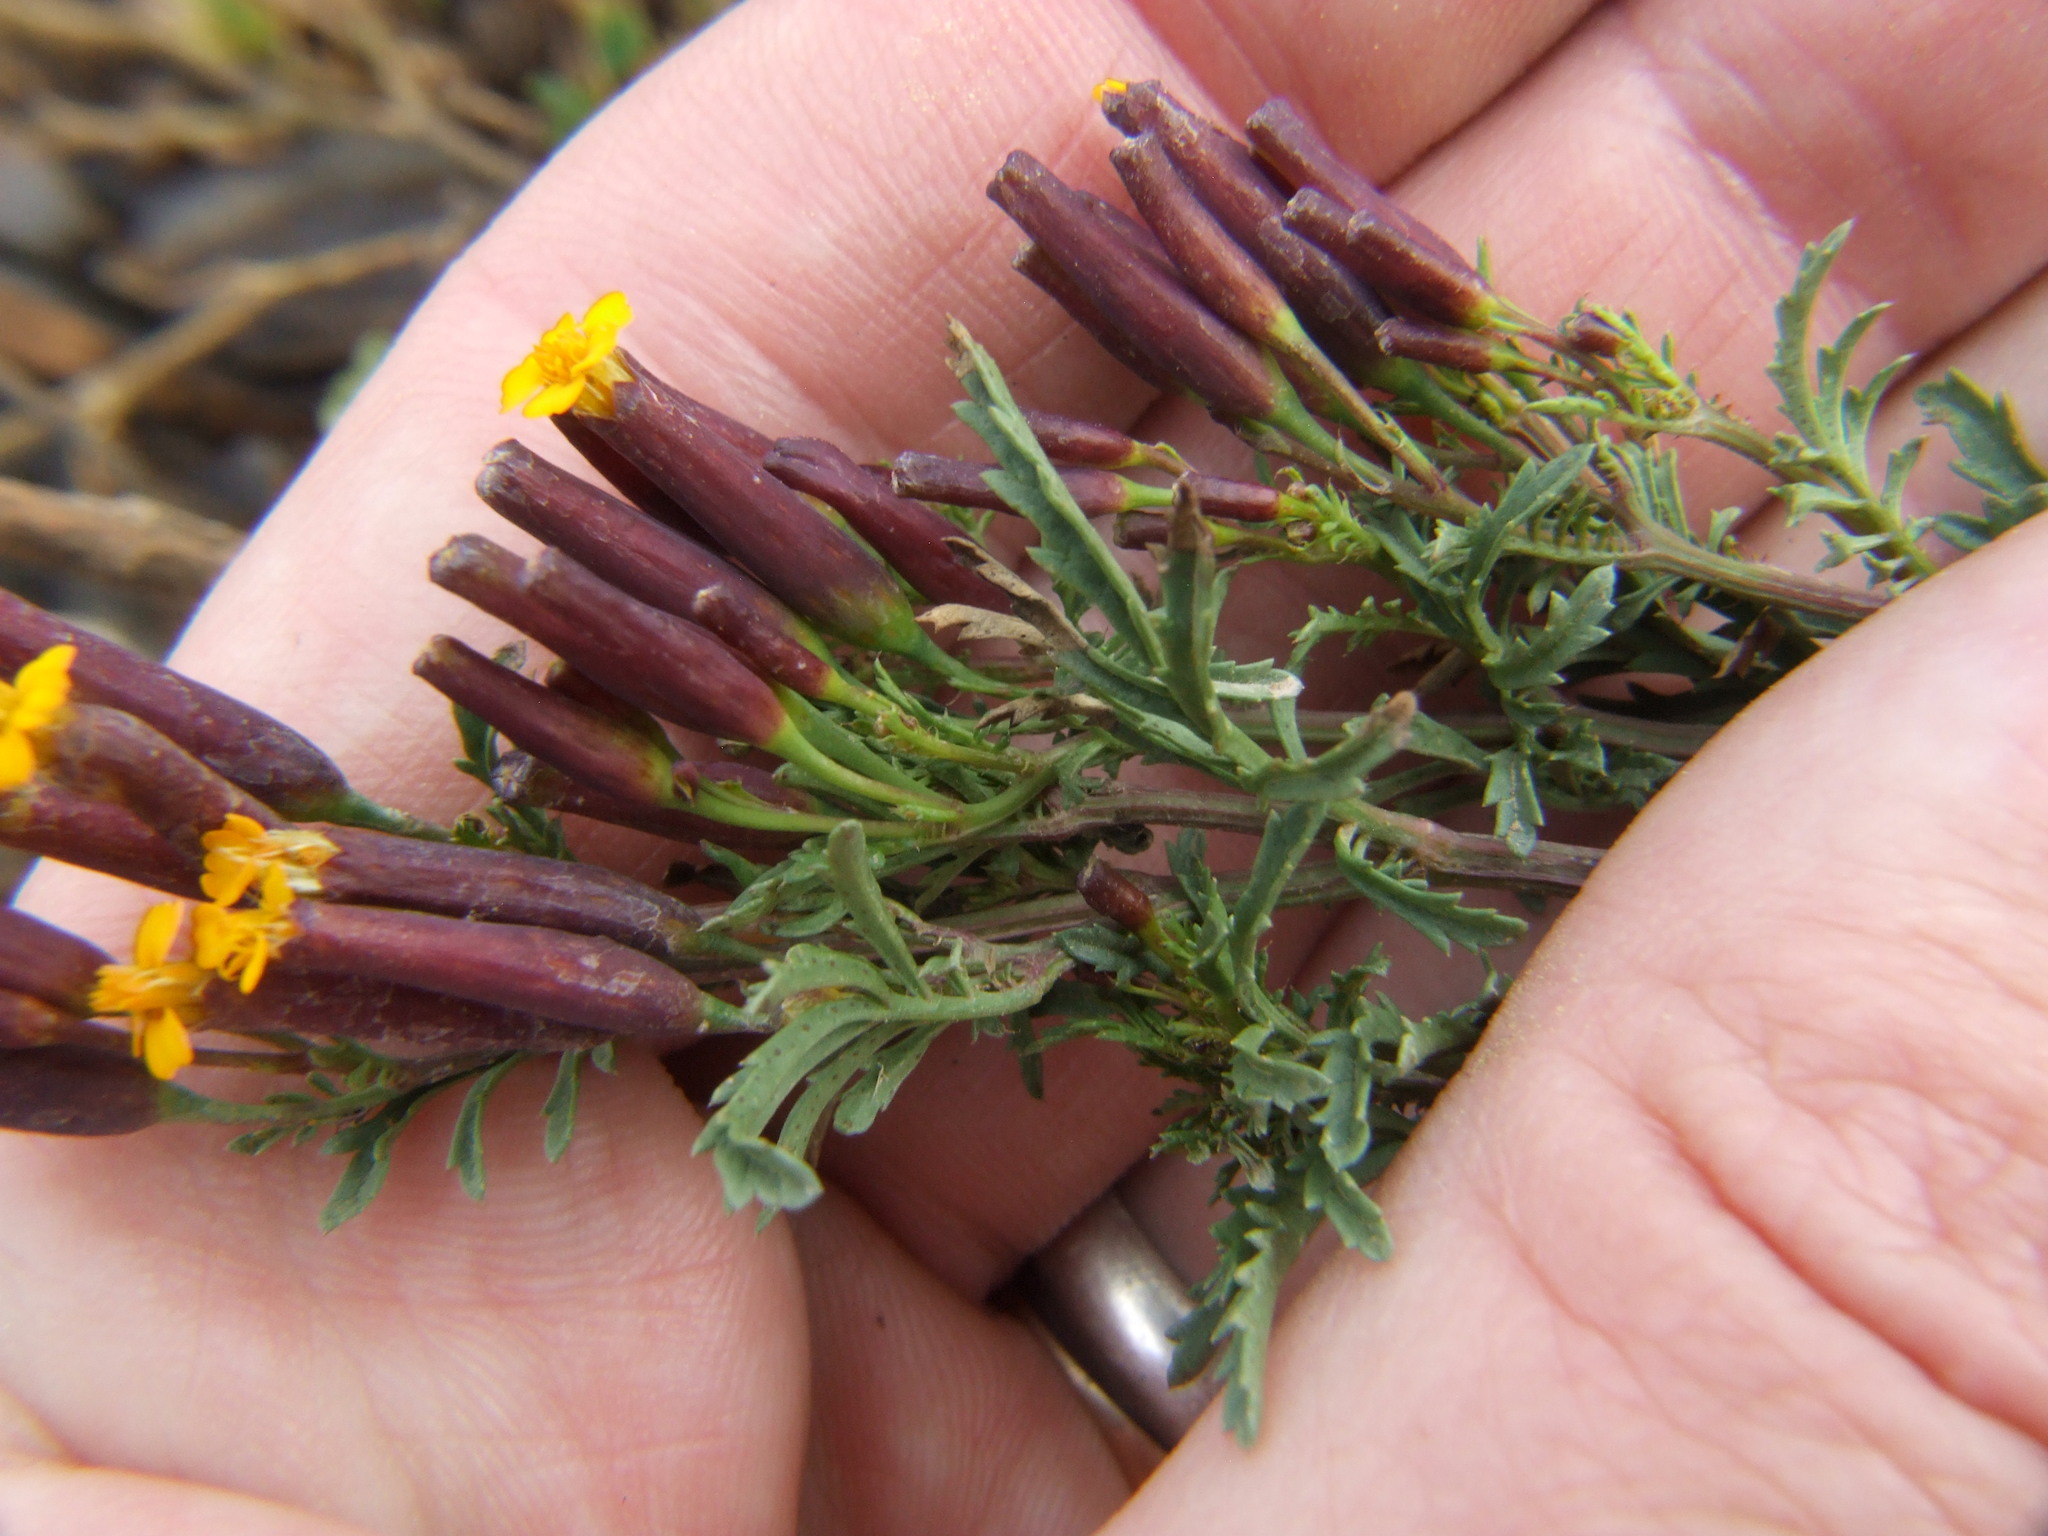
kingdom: Plantae
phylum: Tracheophyta
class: Magnoliopsida
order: Asterales
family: Asteraceae
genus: Tagetes
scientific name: Tagetes multiflora
